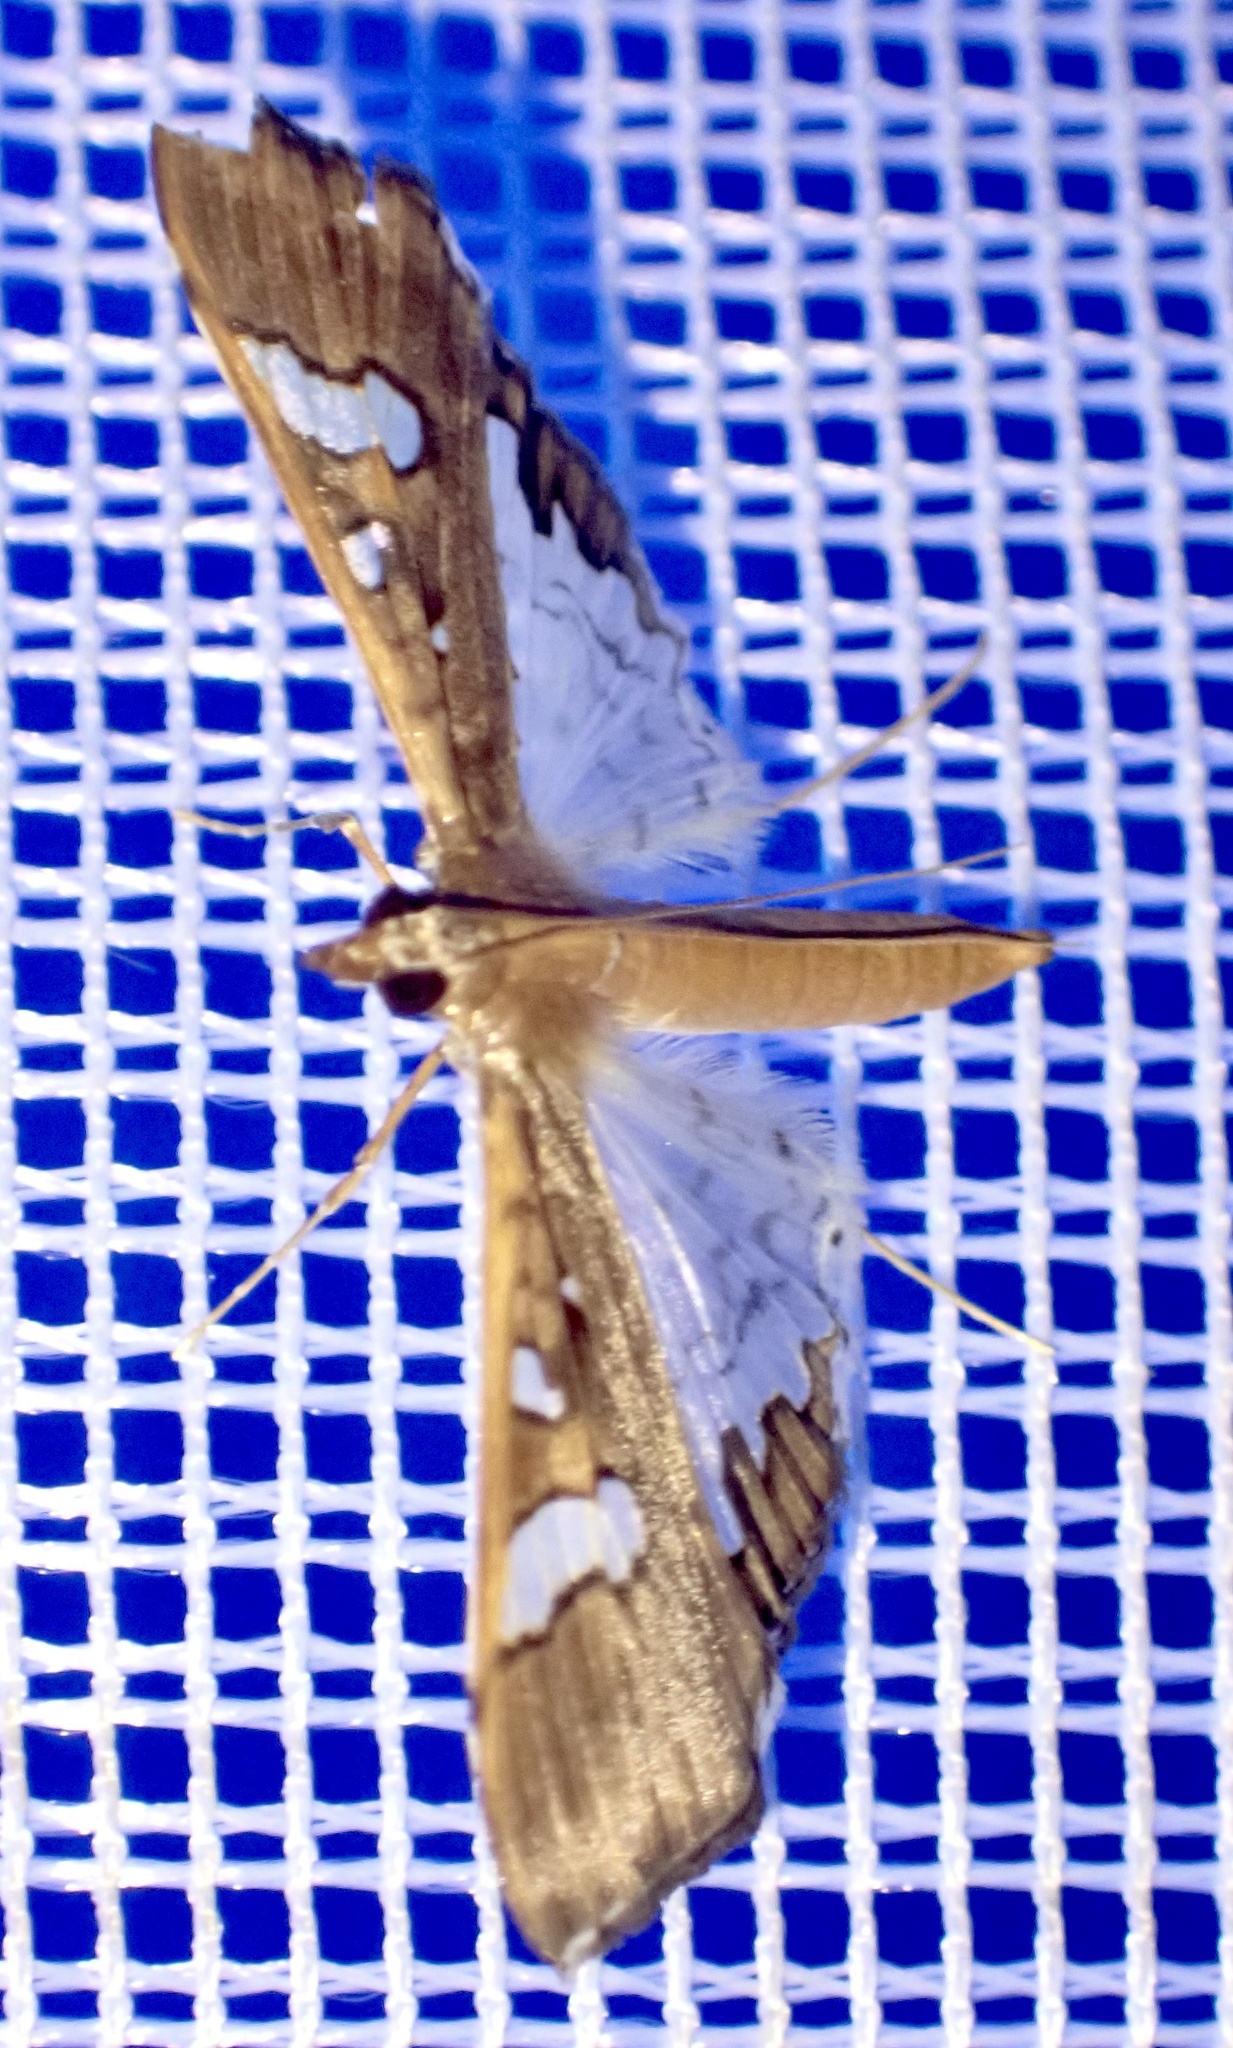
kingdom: Animalia
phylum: Arthropoda
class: Insecta
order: Lepidoptera
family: Crambidae
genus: Maruca
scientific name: Maruca vitrata
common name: Maruca pod borer
